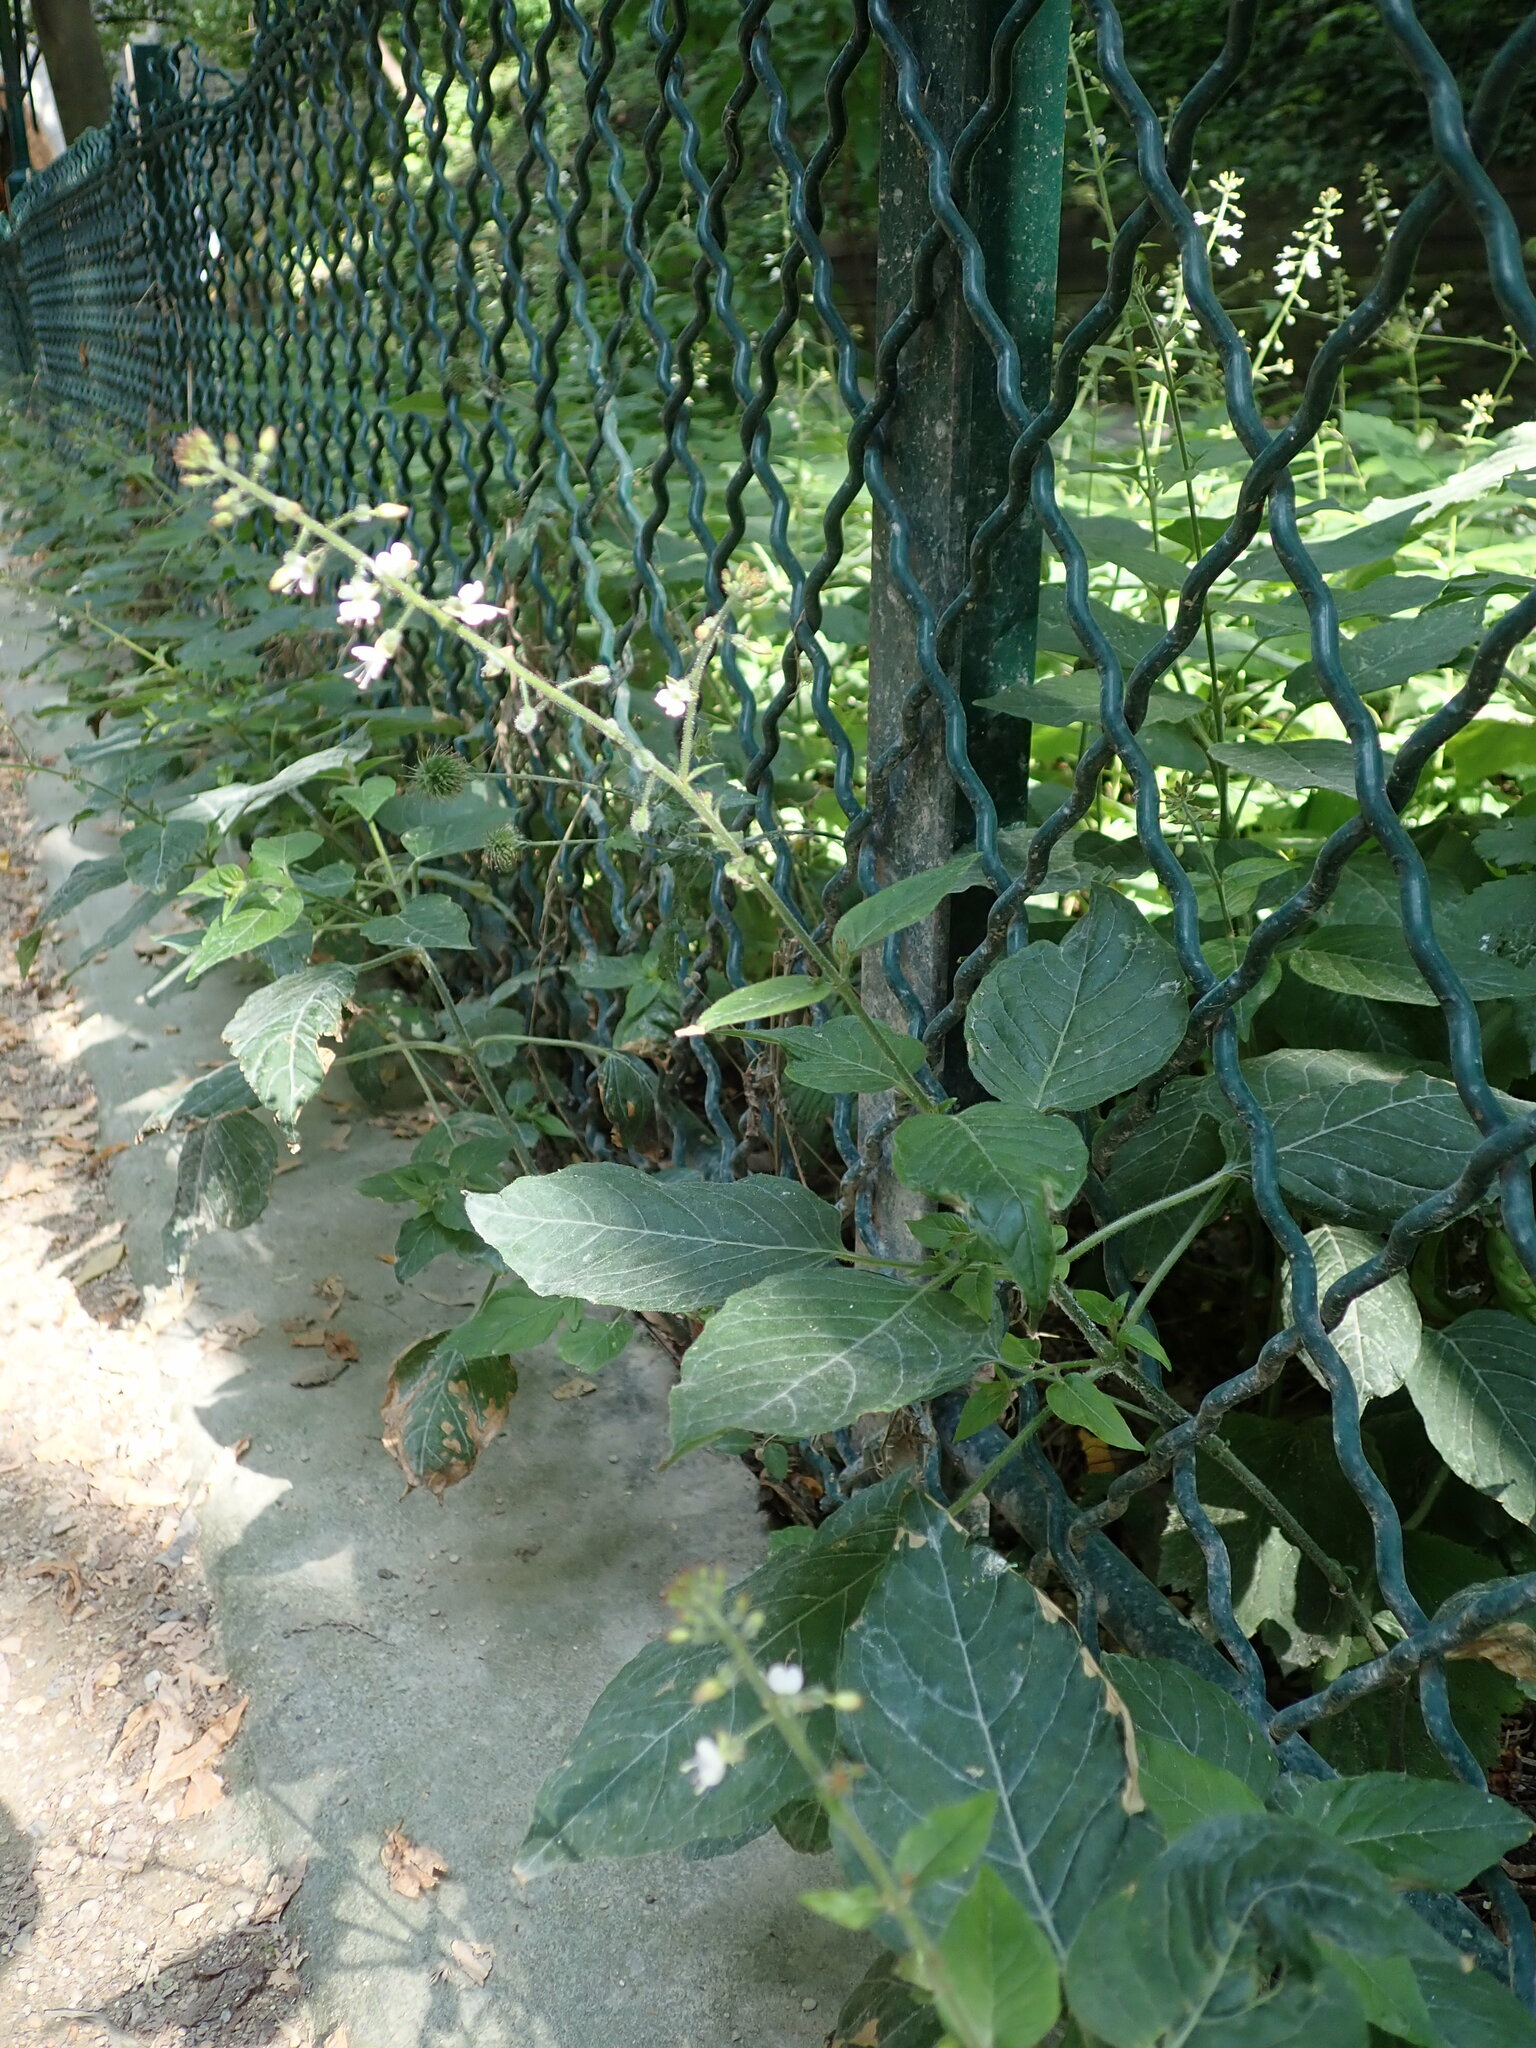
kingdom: Plantae
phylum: Tracheophyta
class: Magnoliopsida
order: Myrtales
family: Onagraceae
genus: Circaea
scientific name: Circaea lutetiana
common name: Enchanter's-nightshade
